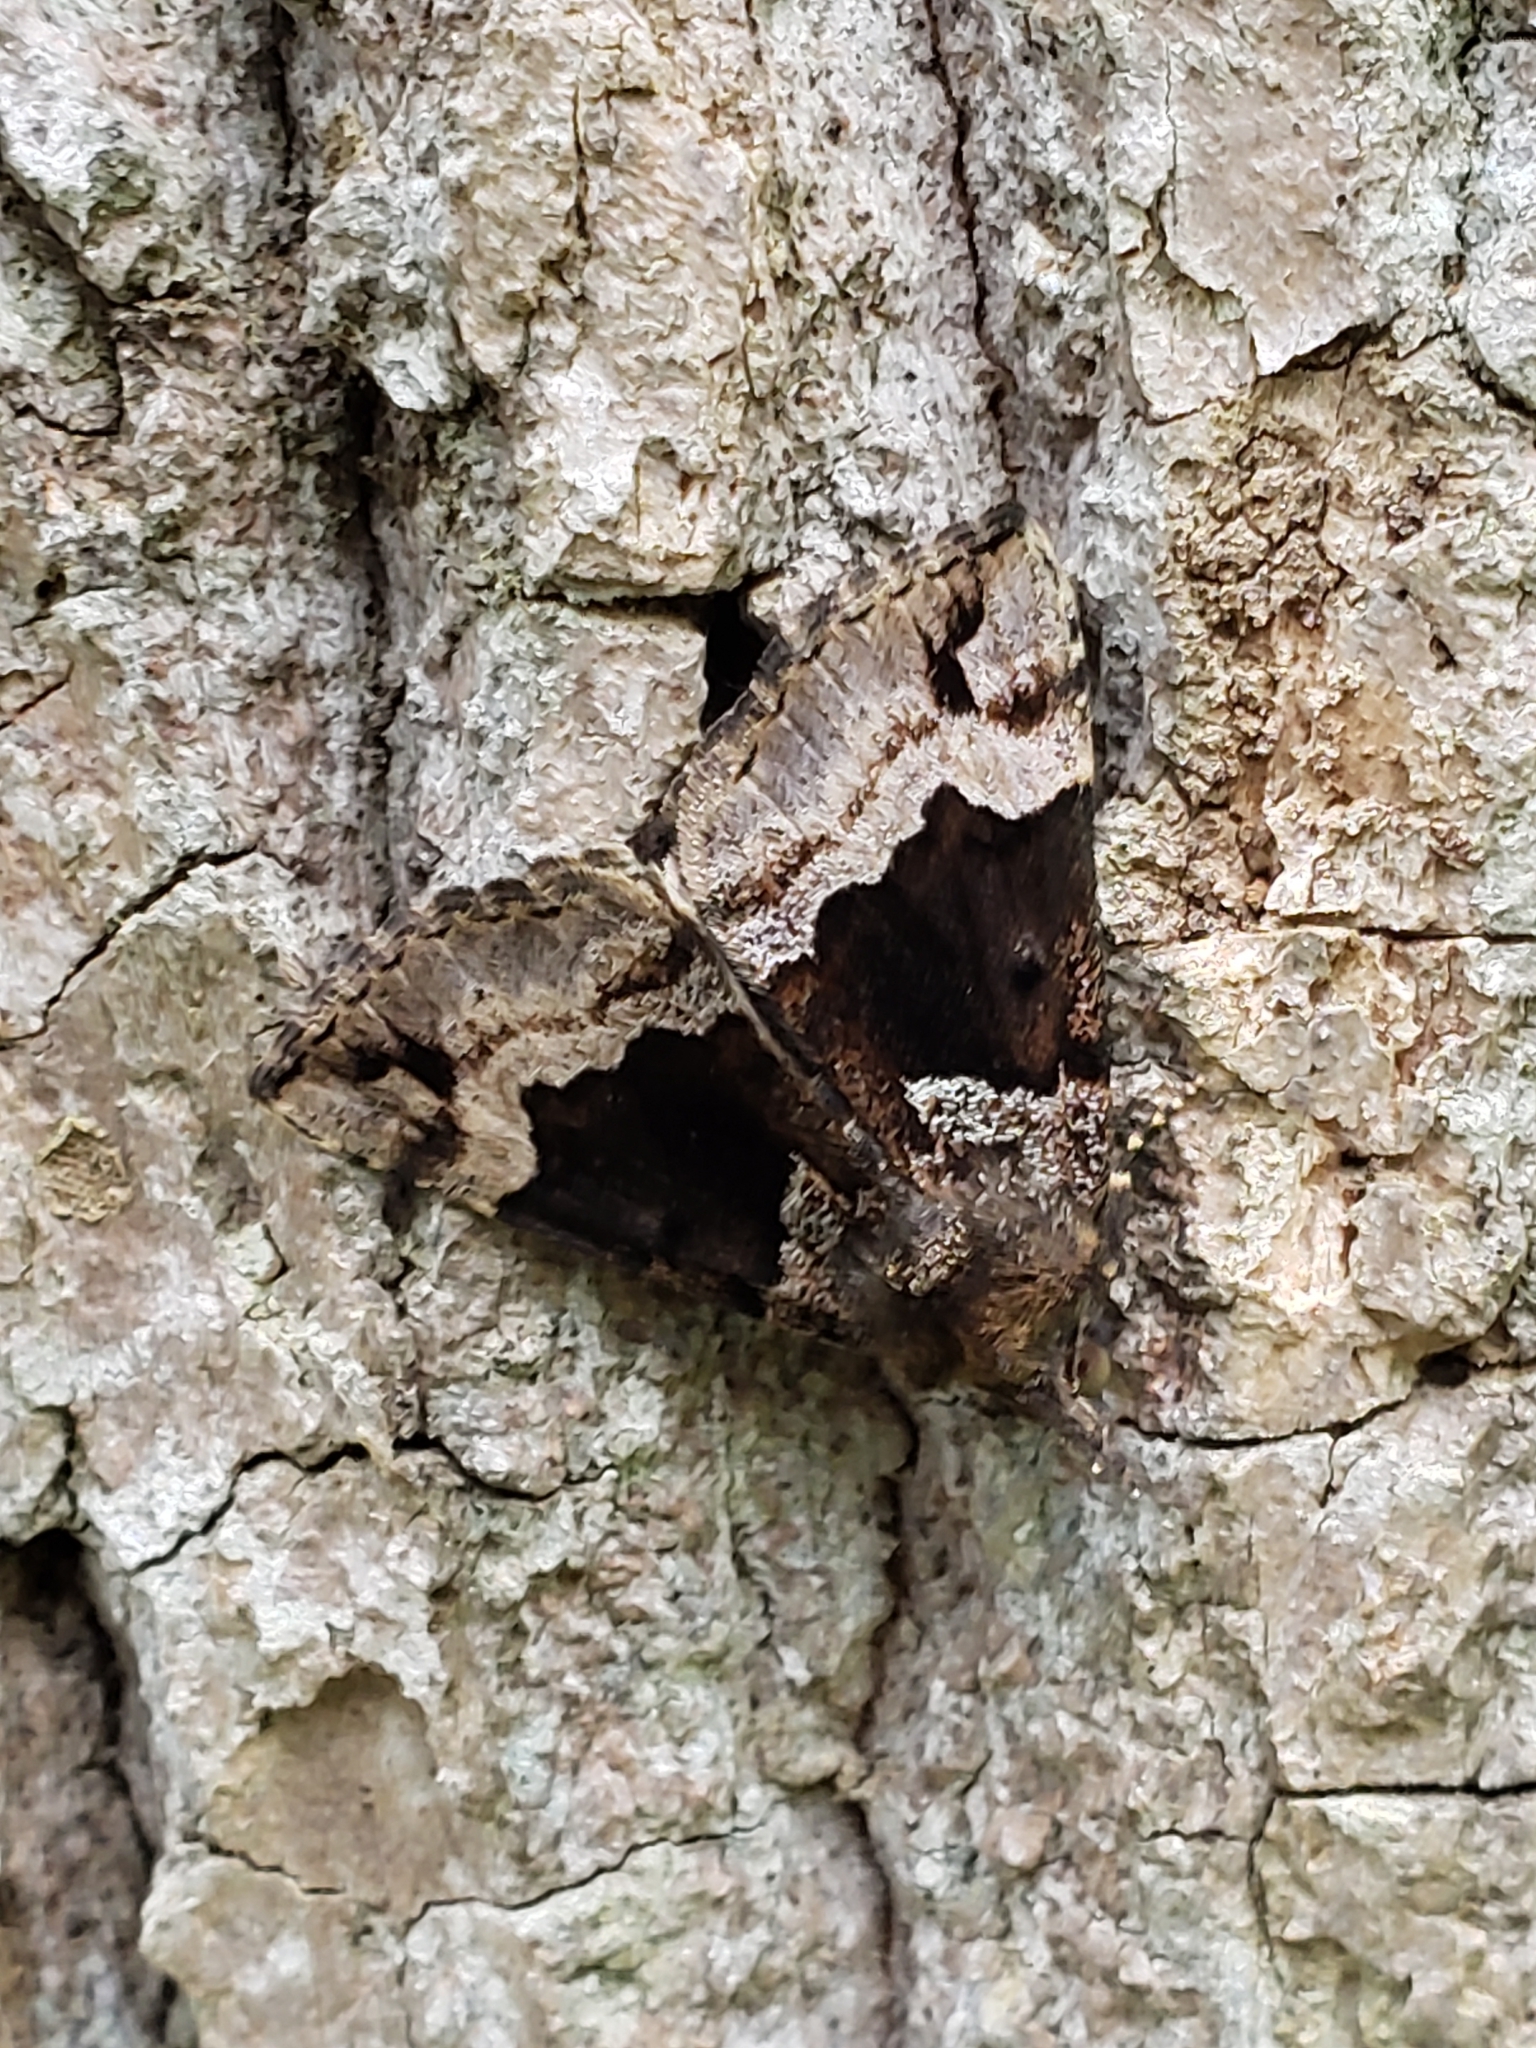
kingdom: Animalia
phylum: Arthropoda
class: Insecta
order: Lepidoptera
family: Erebidae
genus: Hypena
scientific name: Hypena palparia
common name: Mottled bomolocha moth
